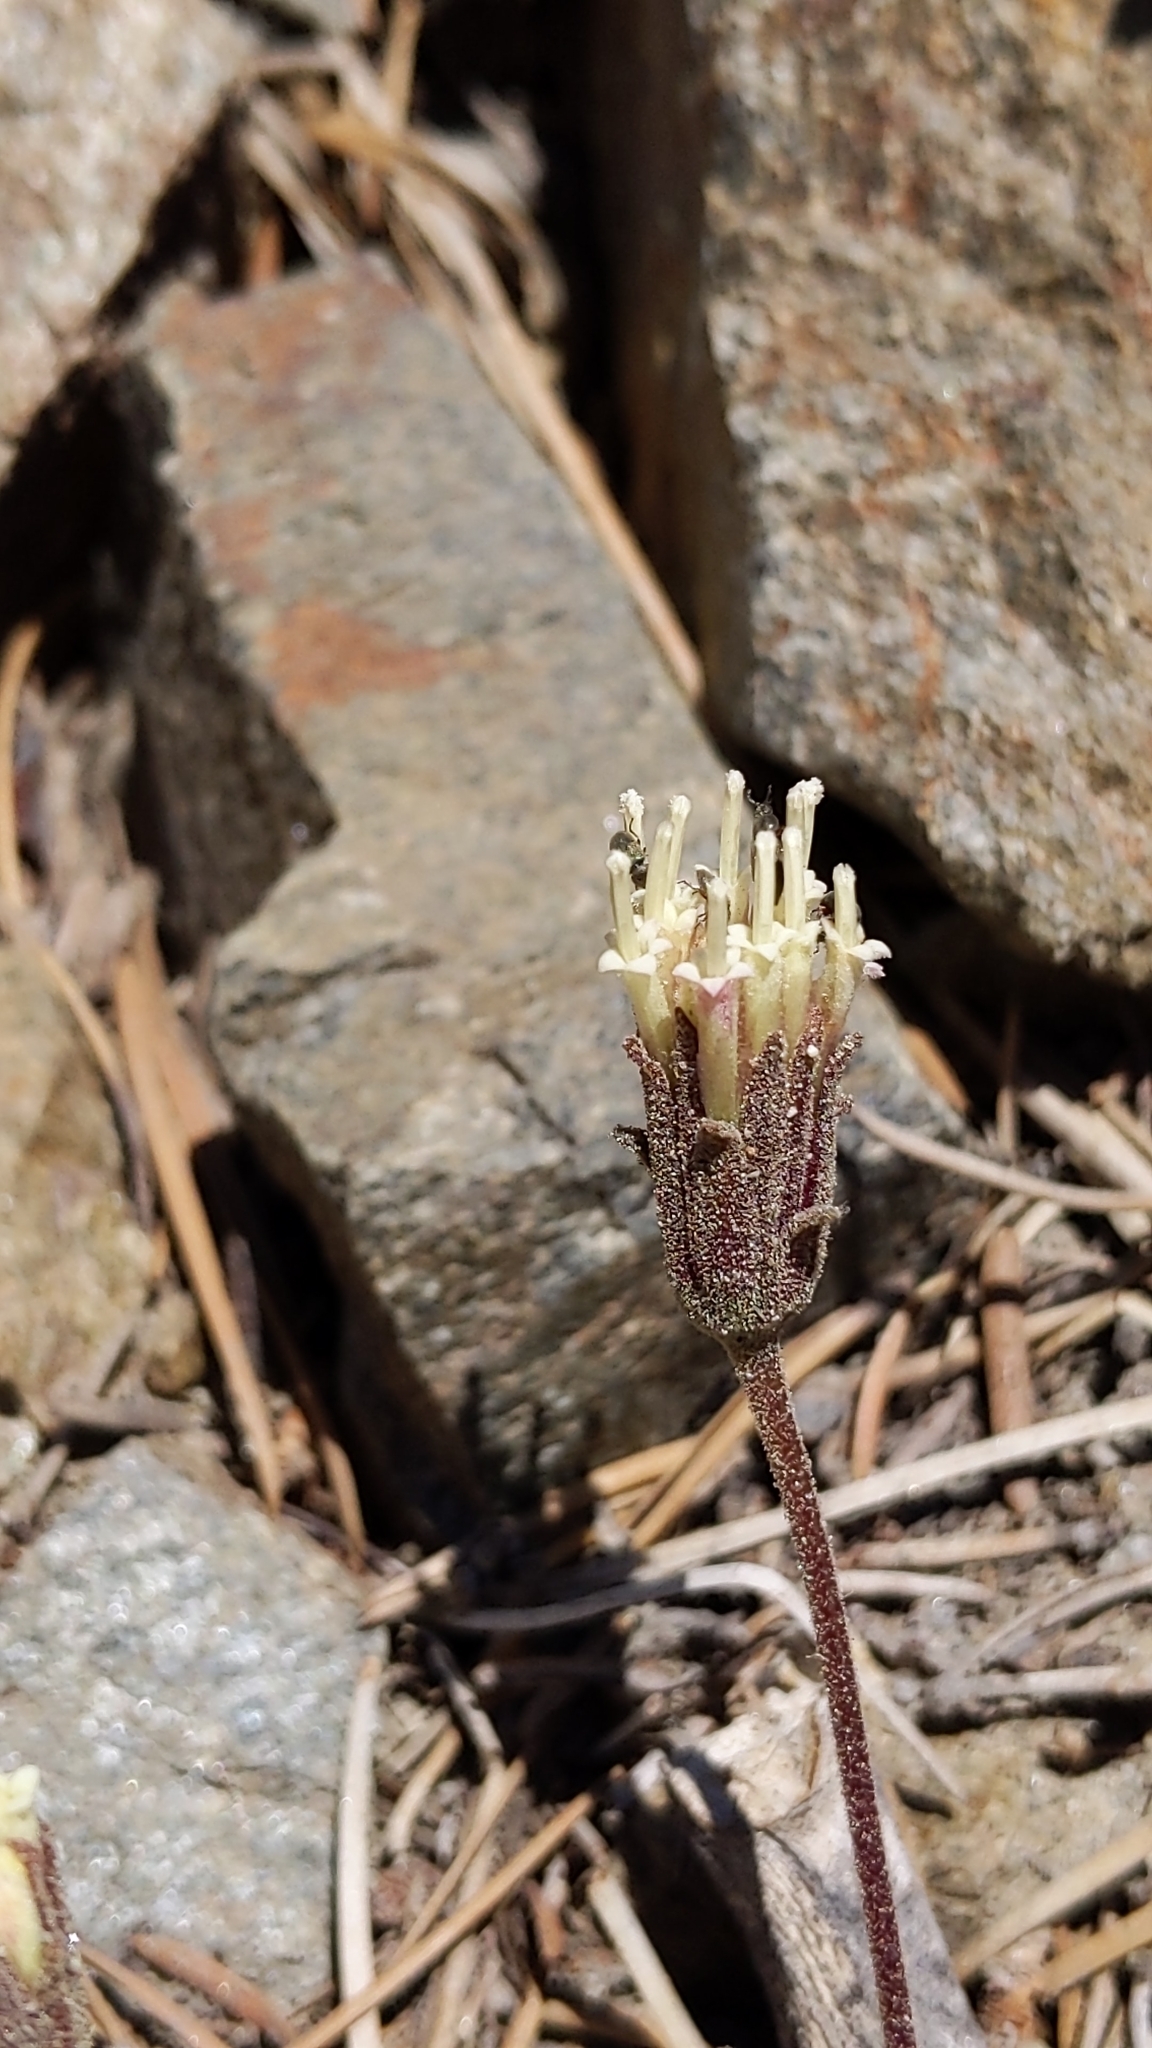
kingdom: Plantae
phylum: Tracheophyta
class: Magnoliopsida
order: Asterales
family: Asteraceae
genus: Chaenactis
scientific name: Chaenactis santolinoides
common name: Santolina pincushion
